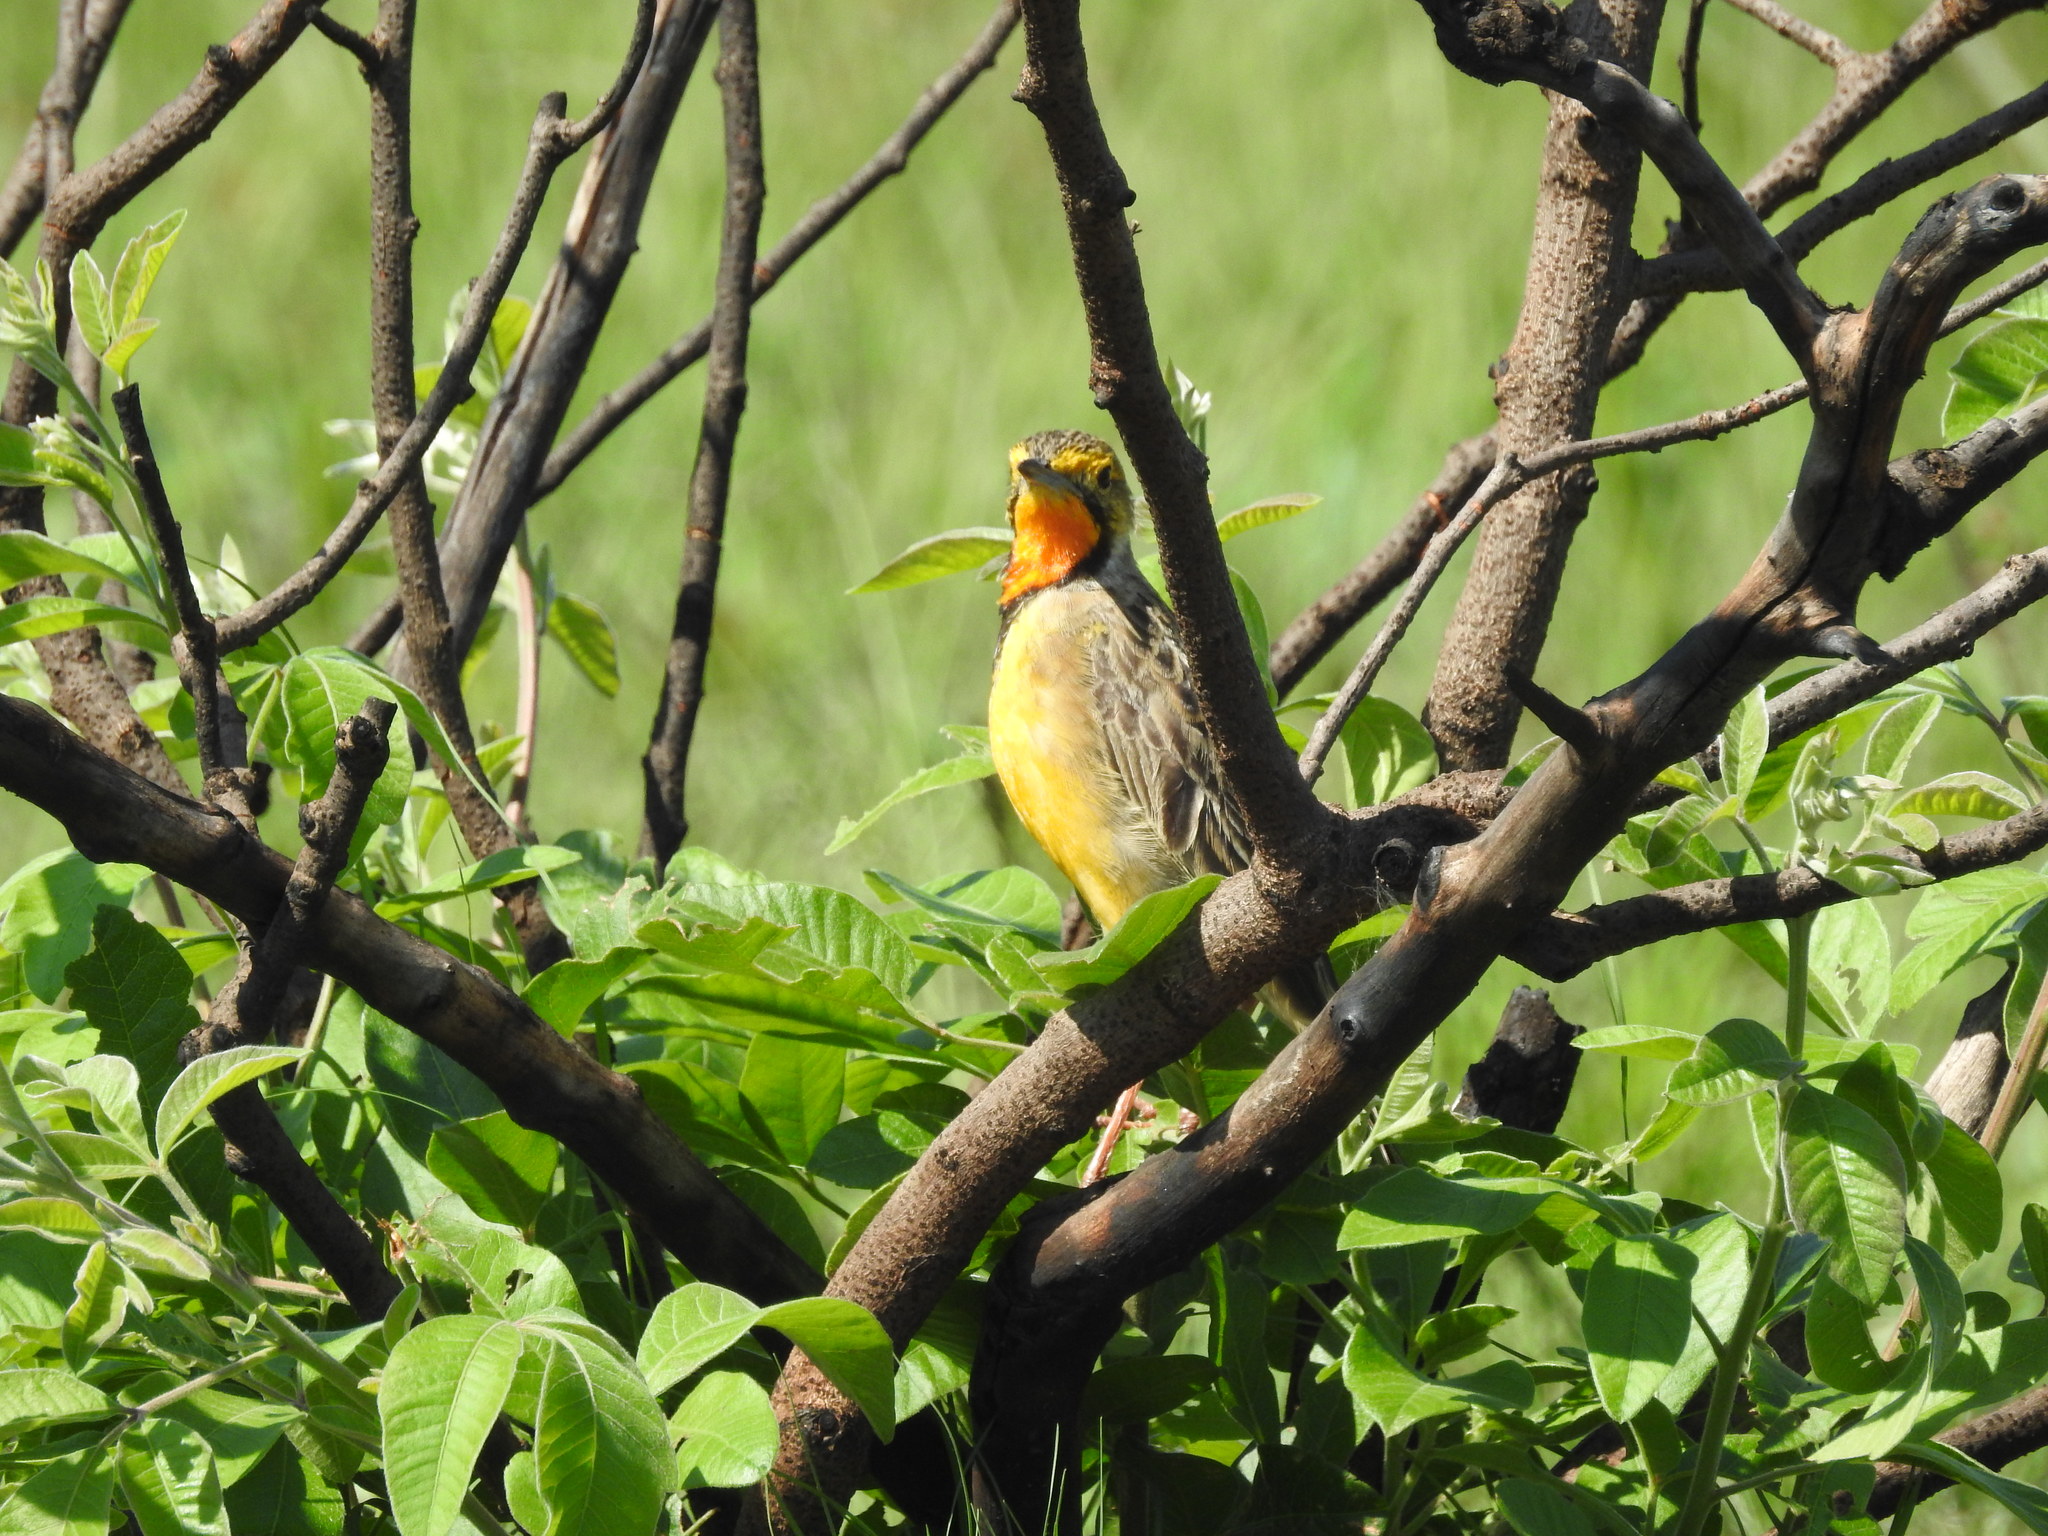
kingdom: Animalia
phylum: Chordata
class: Aves
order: Passeriformes
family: Motacillidae
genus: Macronyx
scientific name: Macronyx capensis
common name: Cape longclaw
